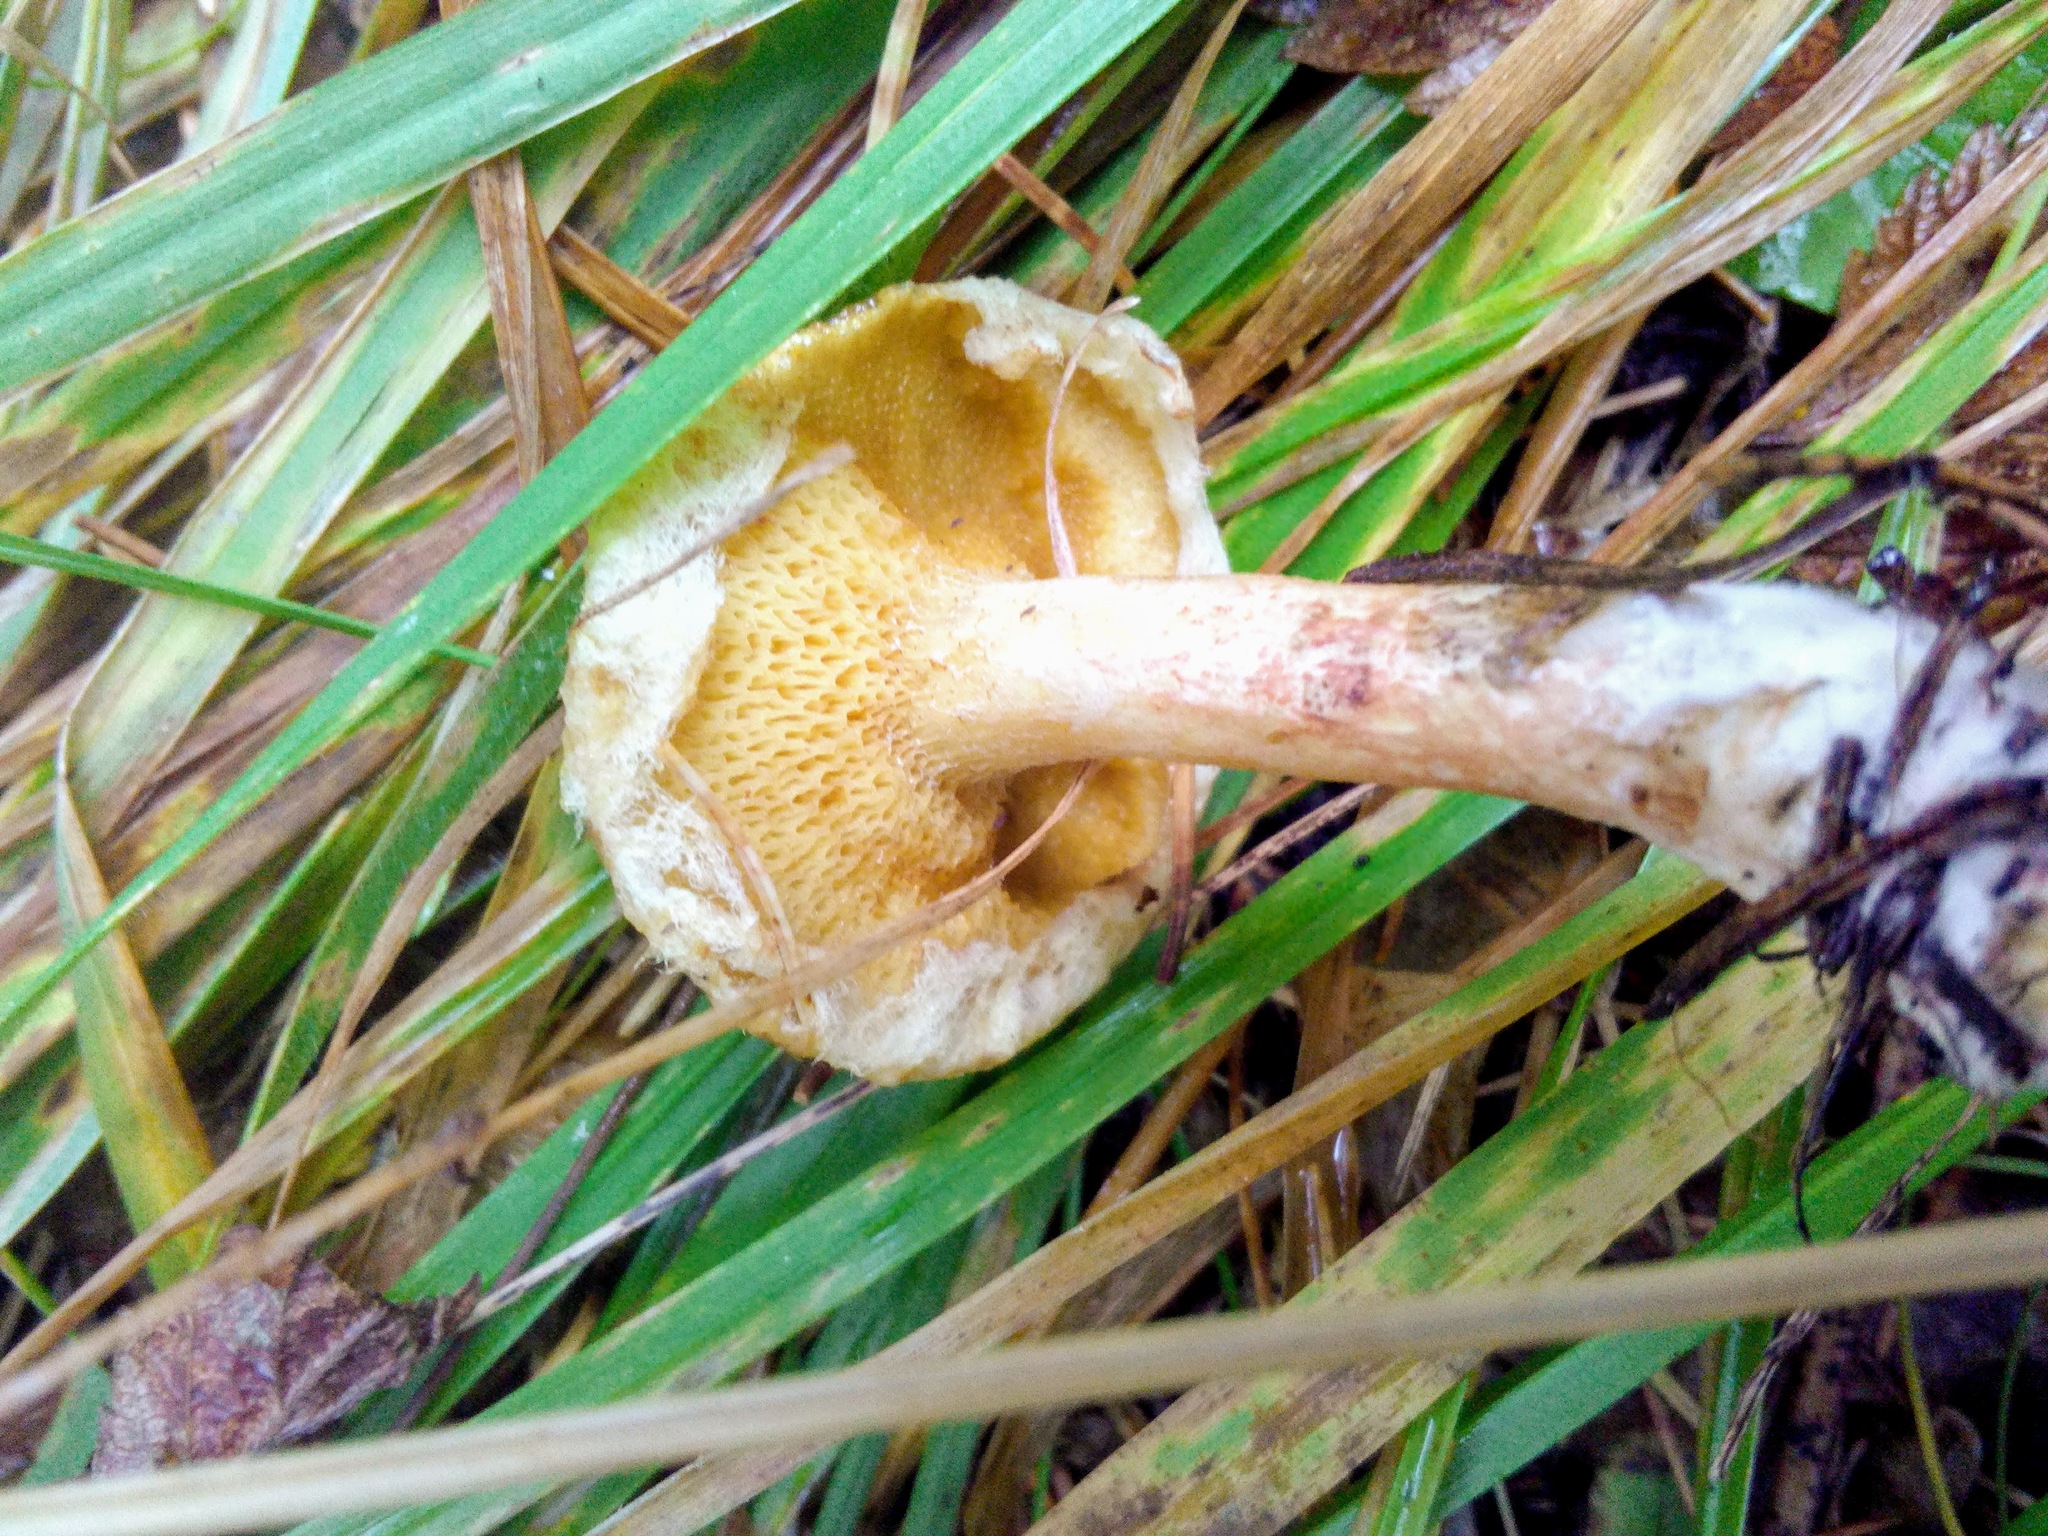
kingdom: Fungi
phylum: Basidiomycota
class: Agaricomycetes
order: Boletales
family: Suillaceae
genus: Suillus
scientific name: Suillus americanus
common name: Chicken fat mushroom
